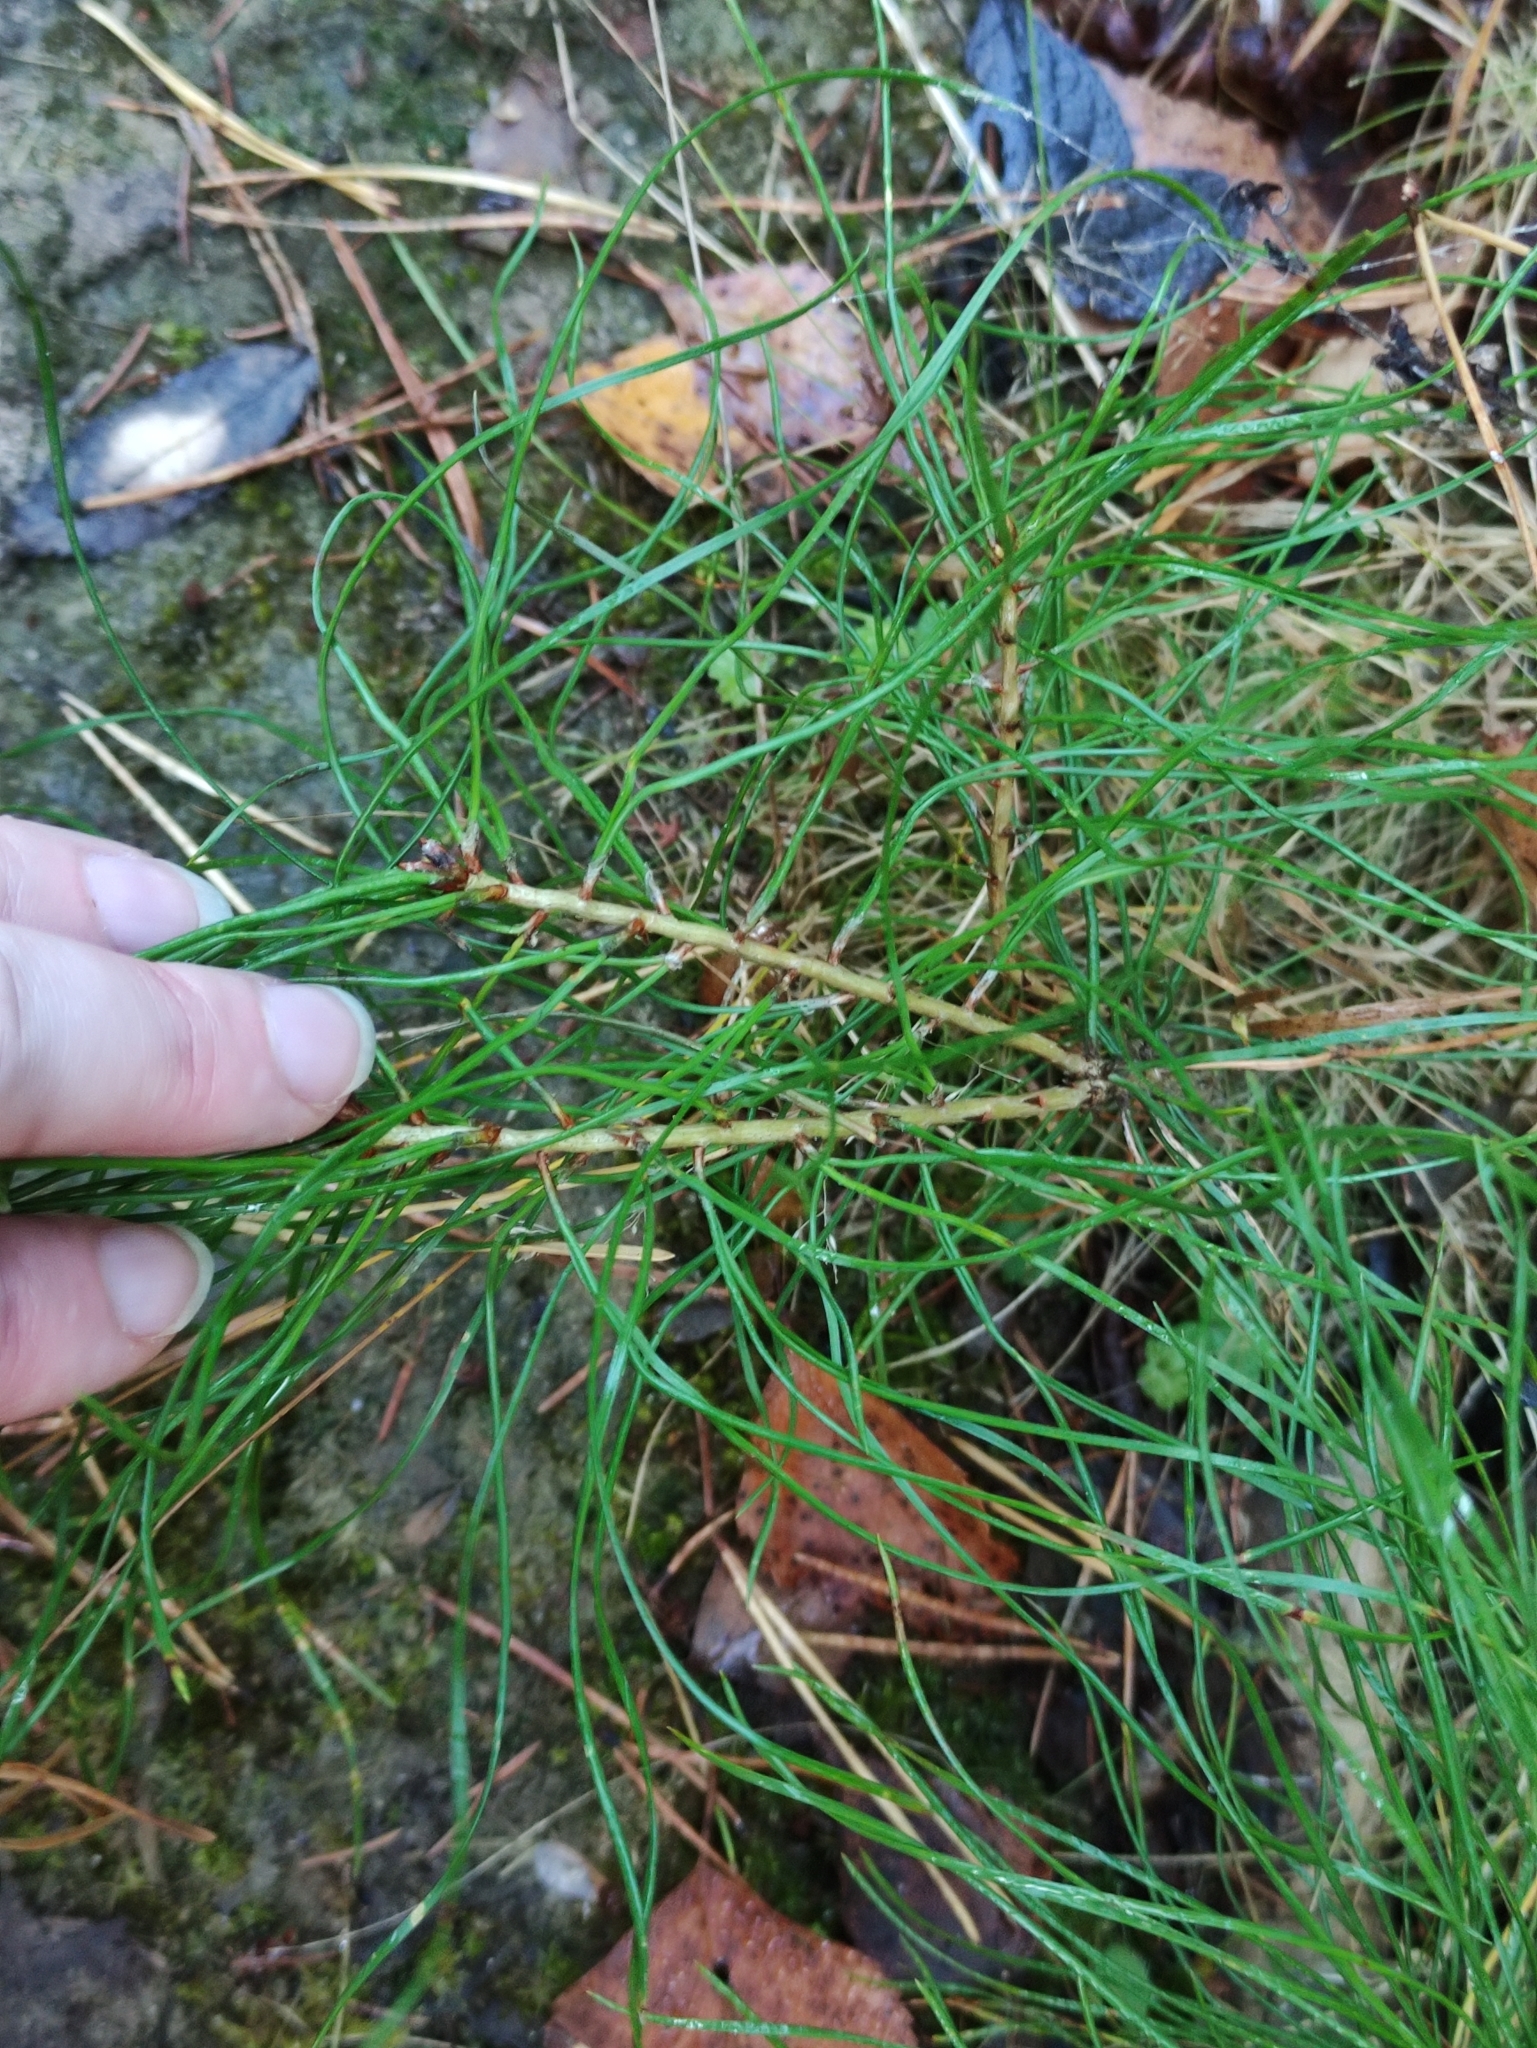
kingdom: Plantae
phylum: Tracheophyta
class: Pinopsida
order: Pinales
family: Pinaceae
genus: Pinus
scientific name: Pinus sylvestris
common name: Scots pine
